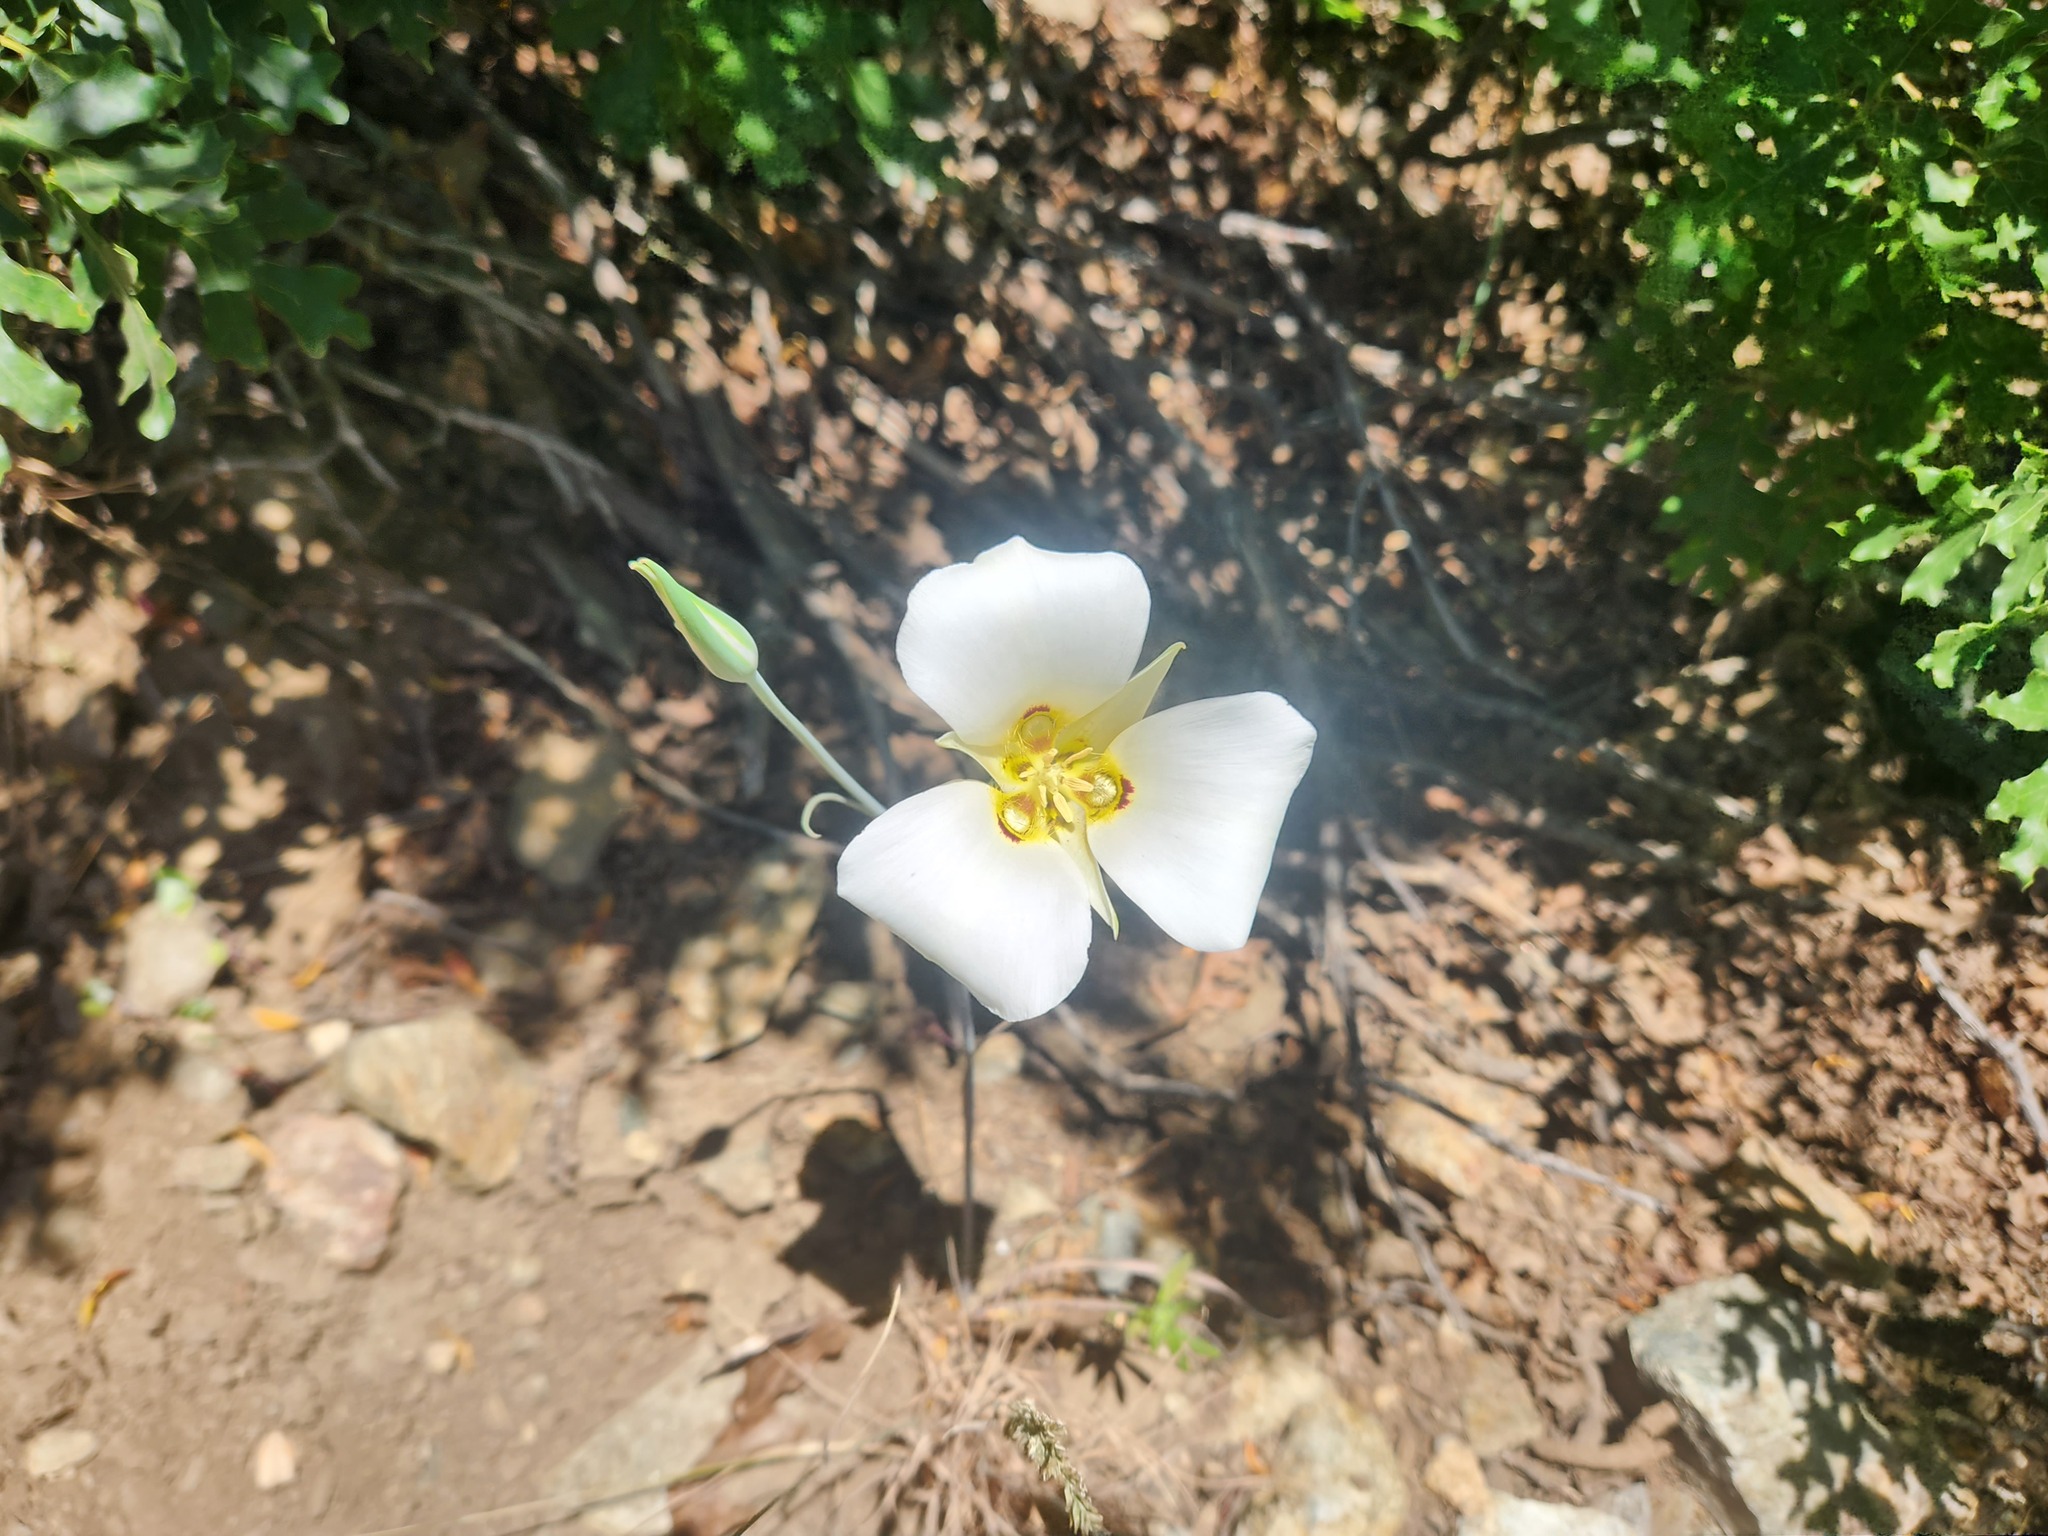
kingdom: Plantae
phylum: Tracheophyta
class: Liliopsida
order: Liliales
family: Liliaceae
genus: Calochortus
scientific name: Calochortus nuttallii
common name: Sego-lily
